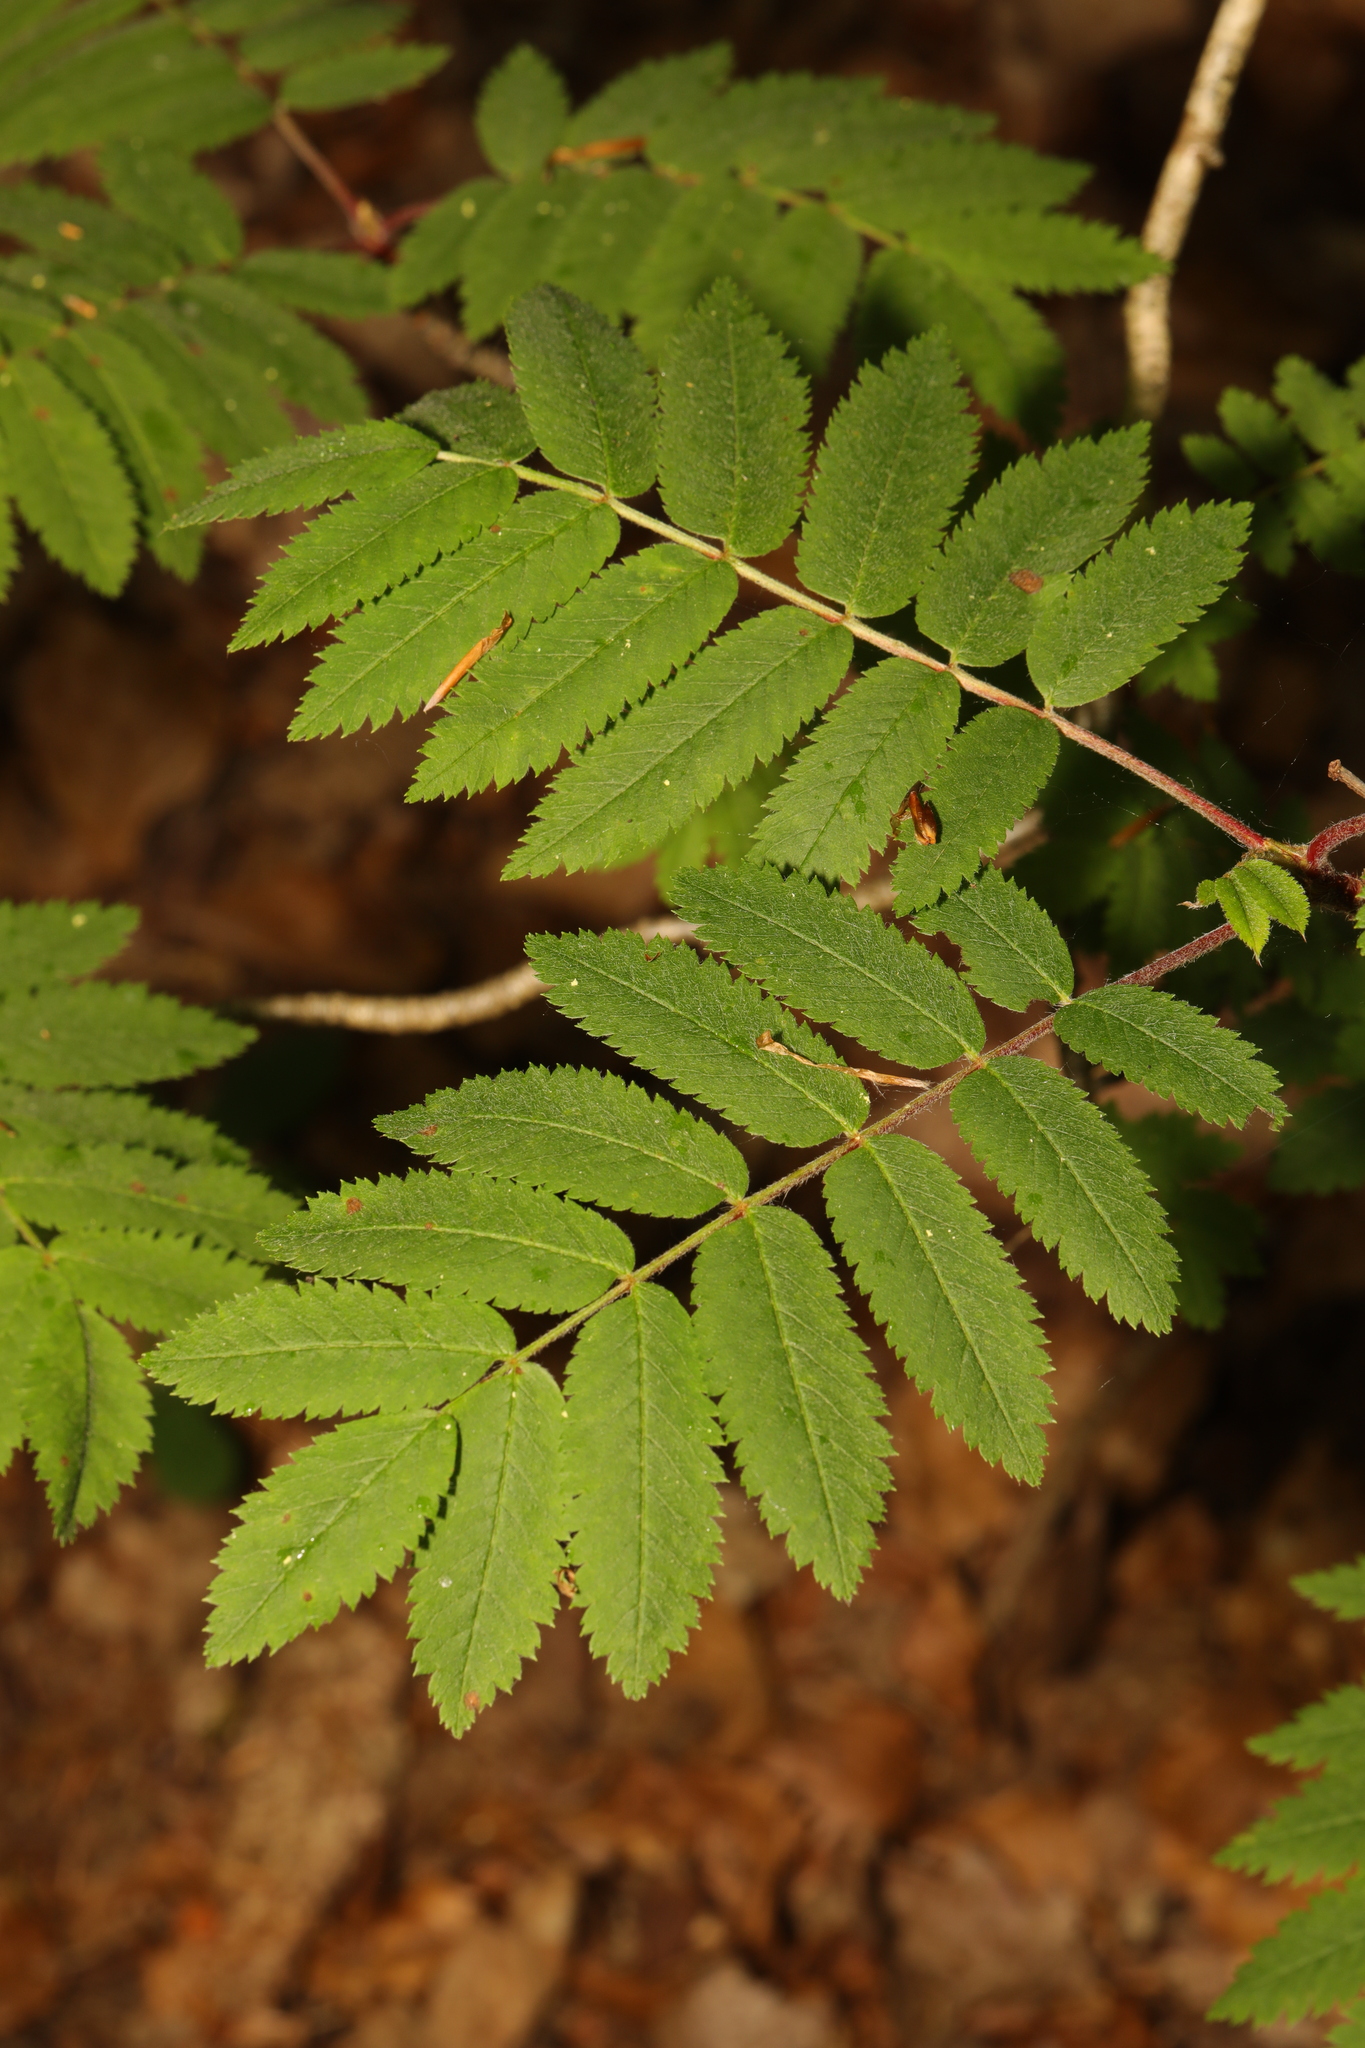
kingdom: Plantae
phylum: Tracheophyta
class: Magnoliopsida
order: Rosales
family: Rosaceae
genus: Sorbus
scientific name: Sorbus aucuparia
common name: Rowan
